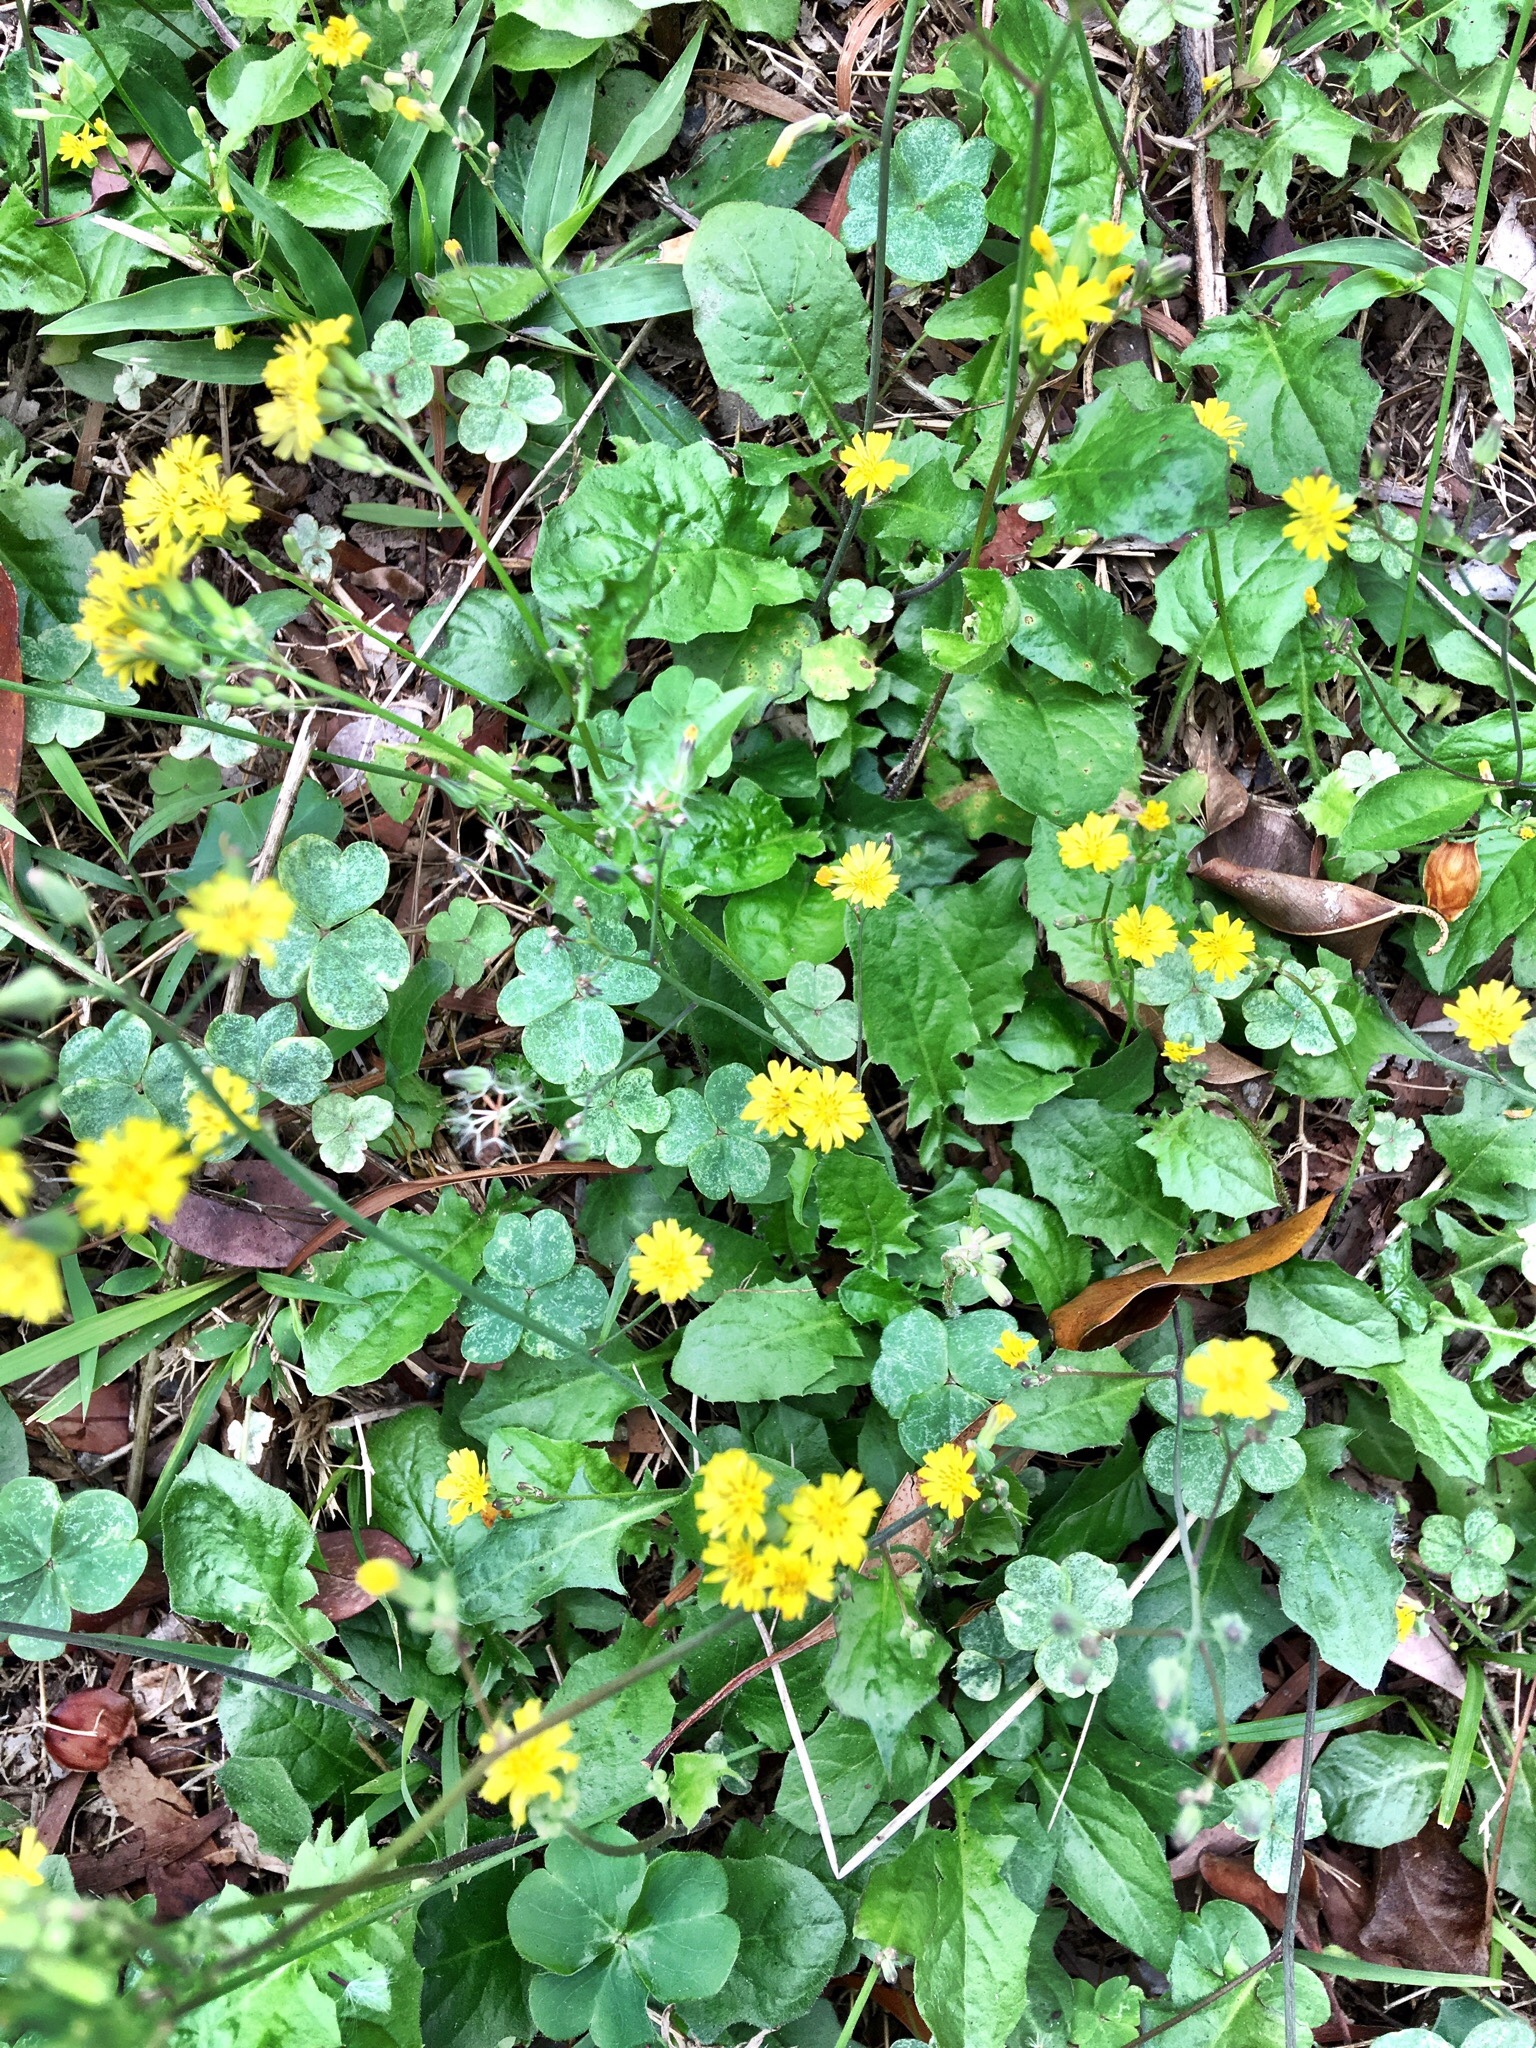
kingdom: Plantae
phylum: Tracheophyta
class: Magnoliopsida
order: Asterales
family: Asteraceae
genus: Youngia
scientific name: Youngia japonica
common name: Oriental false hawksbeard
